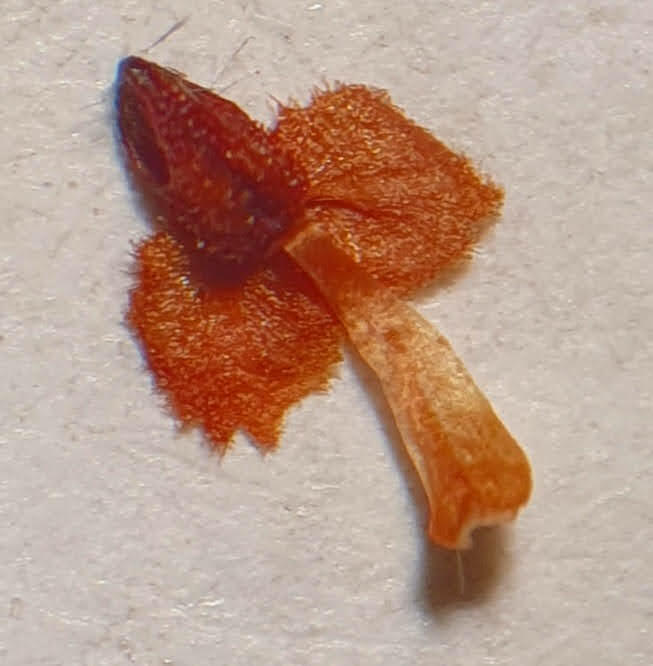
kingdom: Plantae
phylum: Tracheophyta
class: Magnoliopsida
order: Ericales
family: Ericaceae
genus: Erica
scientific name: Erica selaginifolia
